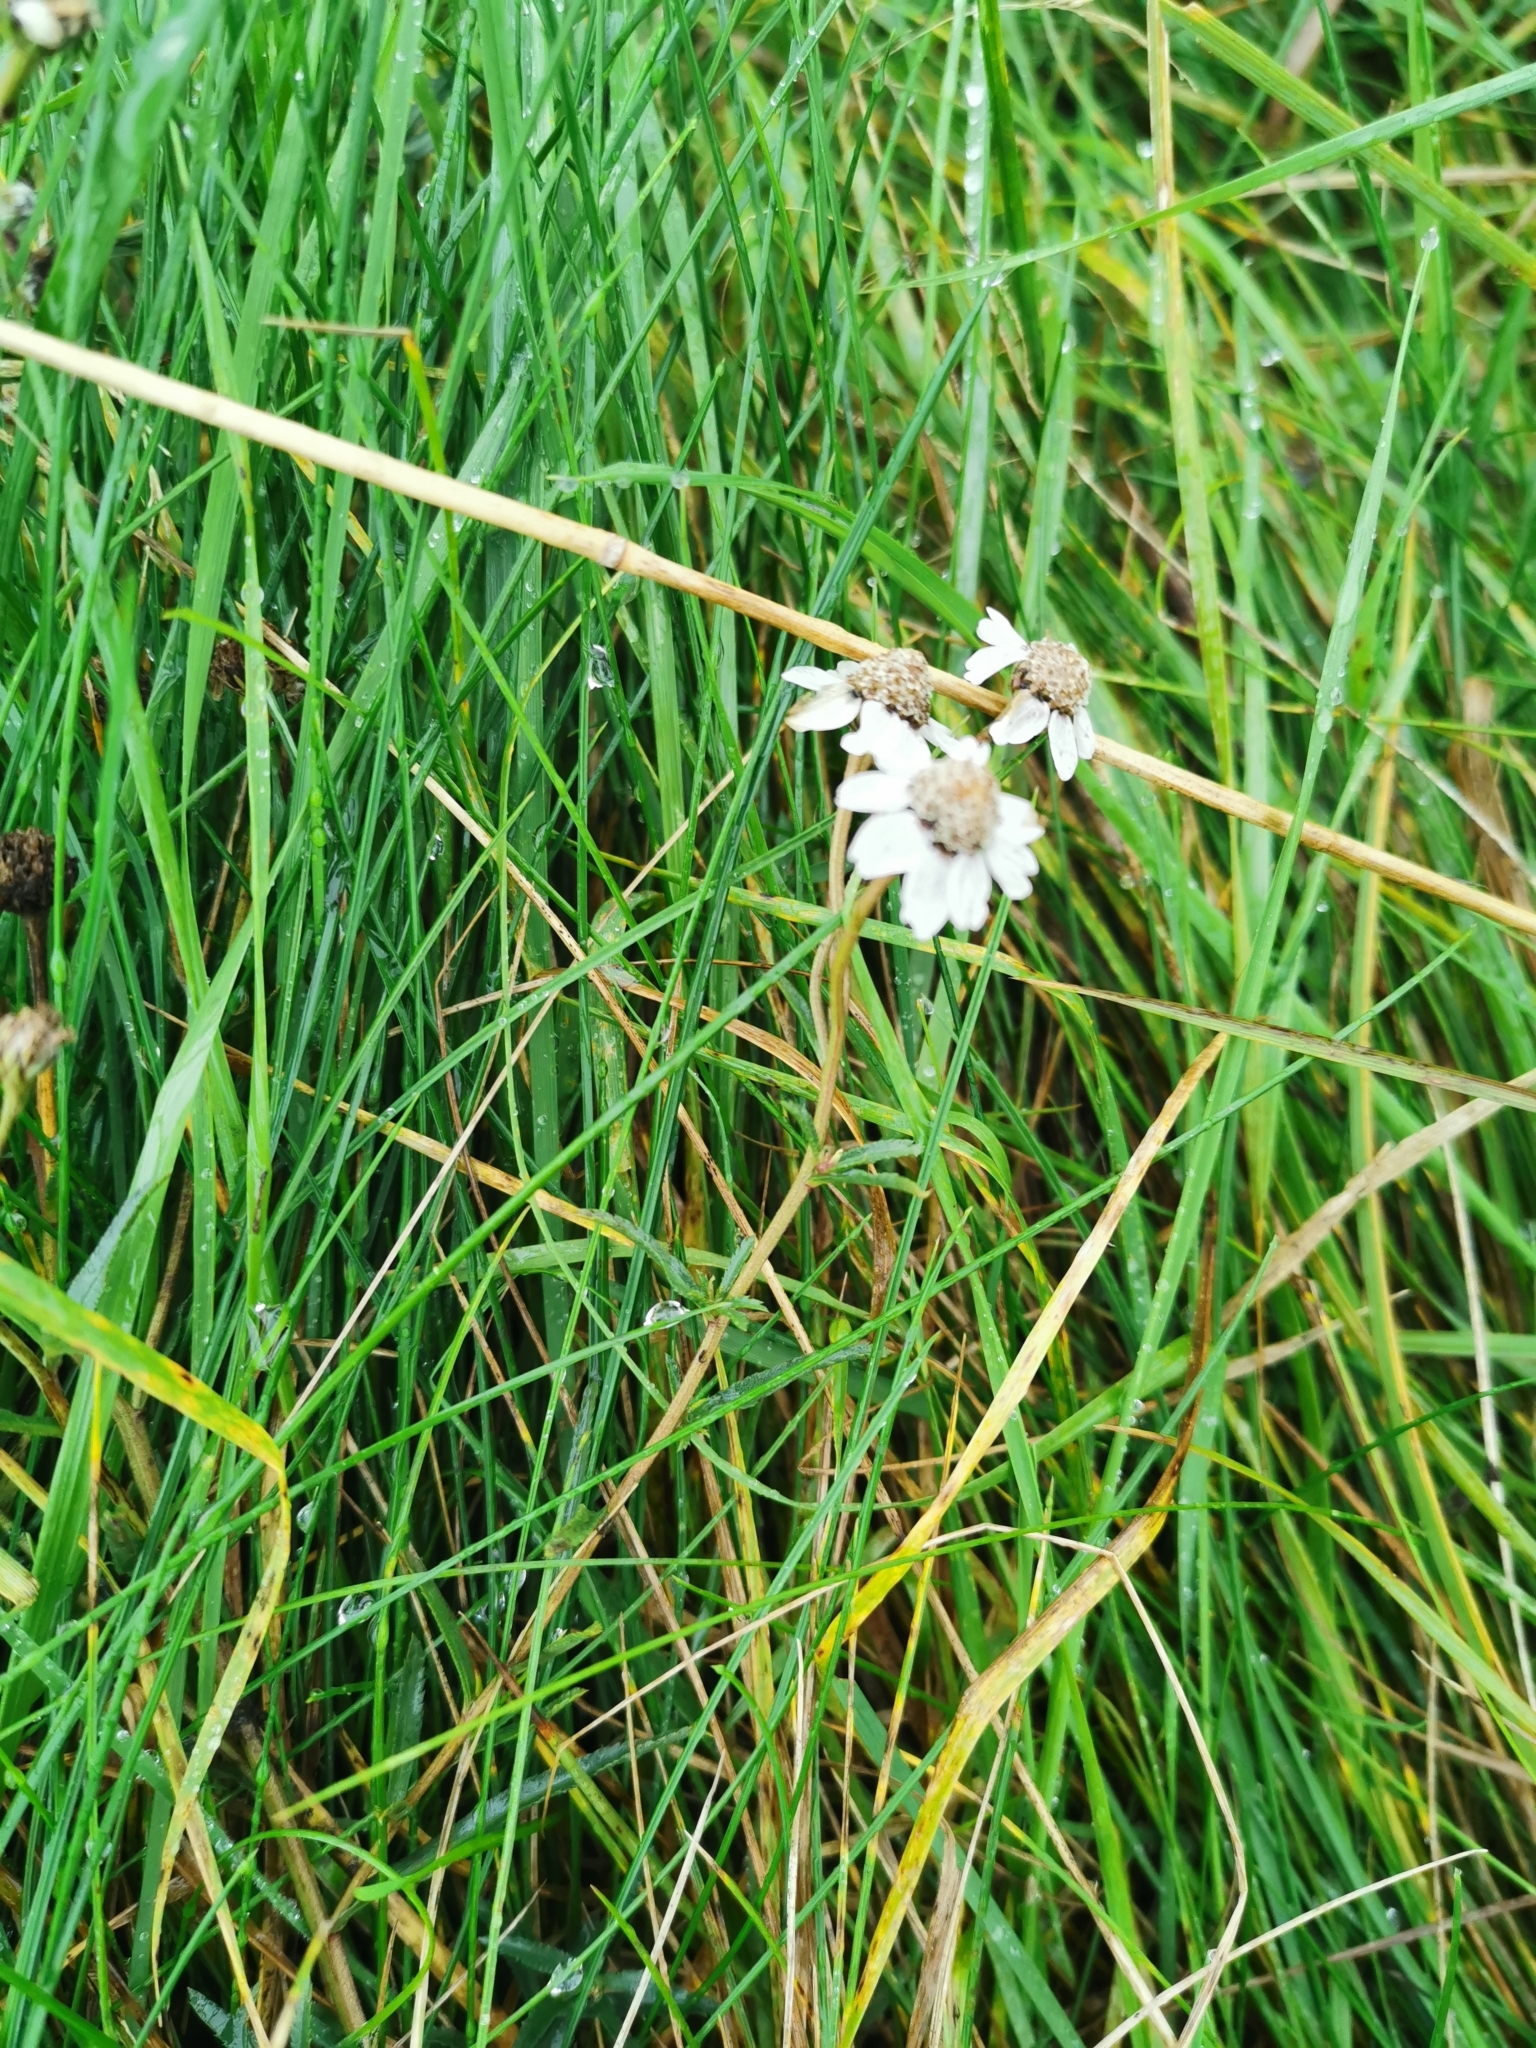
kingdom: Plantae
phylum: Tracheophyta
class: Magnoliopsida
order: Asterales
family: Asteraceae
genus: Achillea
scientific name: Achillea ptarmica
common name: Sneezeweed
